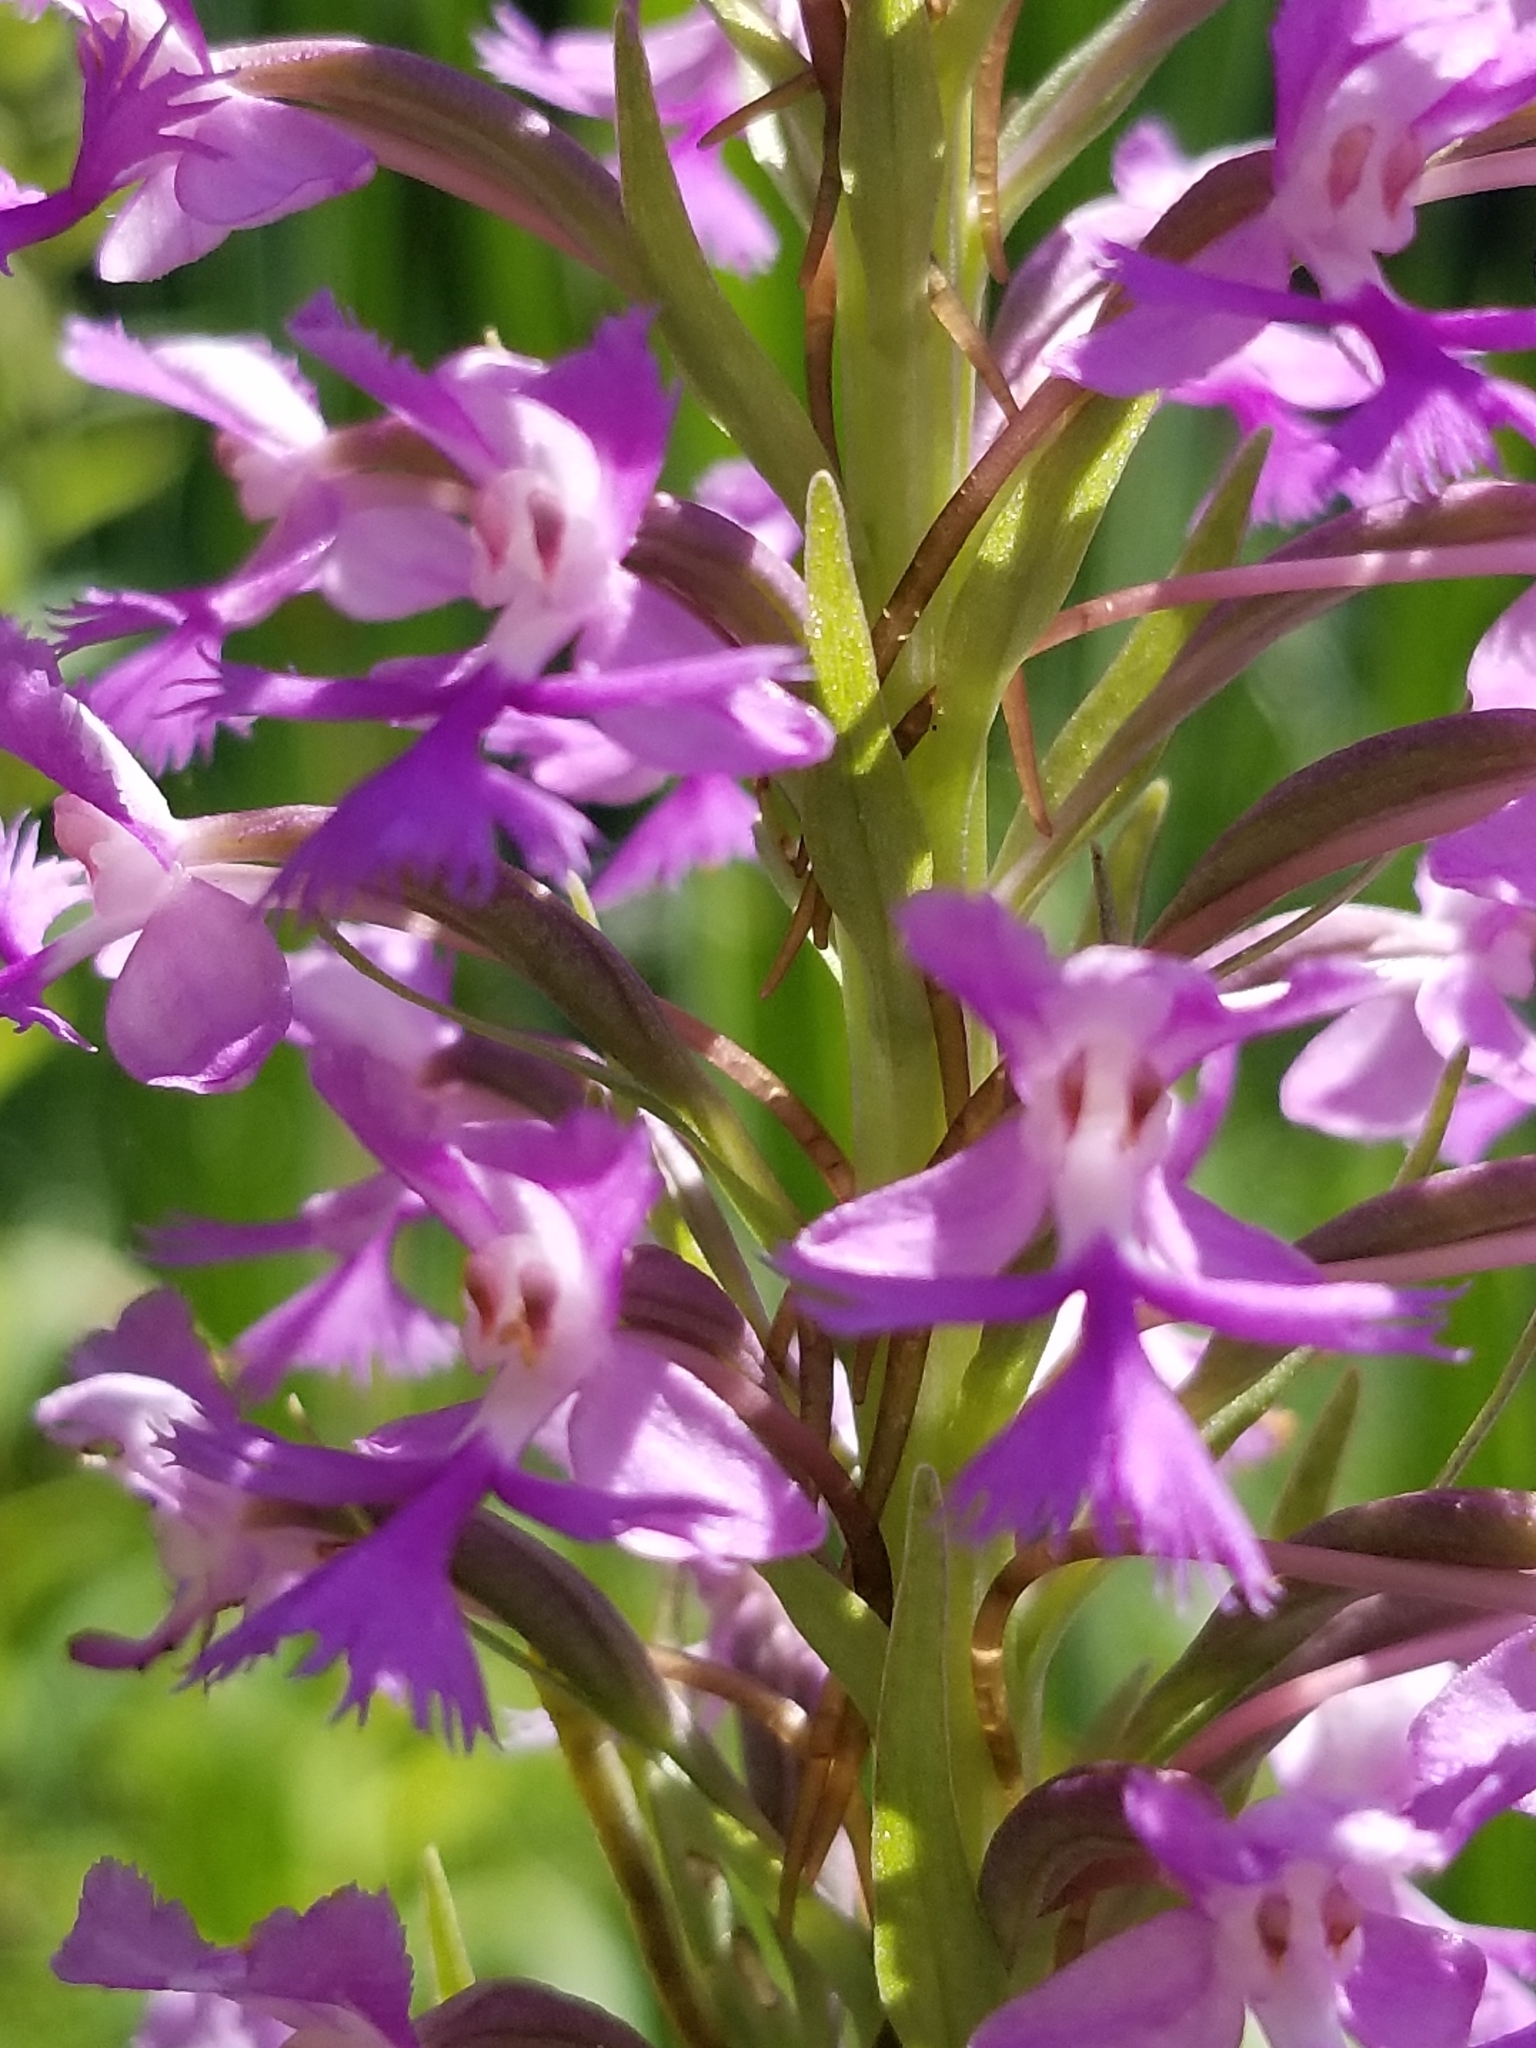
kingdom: Plantae
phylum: Tracheophyta
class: Liliopsida
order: Asparagales
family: Orchidaceae
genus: Platanthera
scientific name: Platanthera psycodes
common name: Lesser purple fringed orchid
